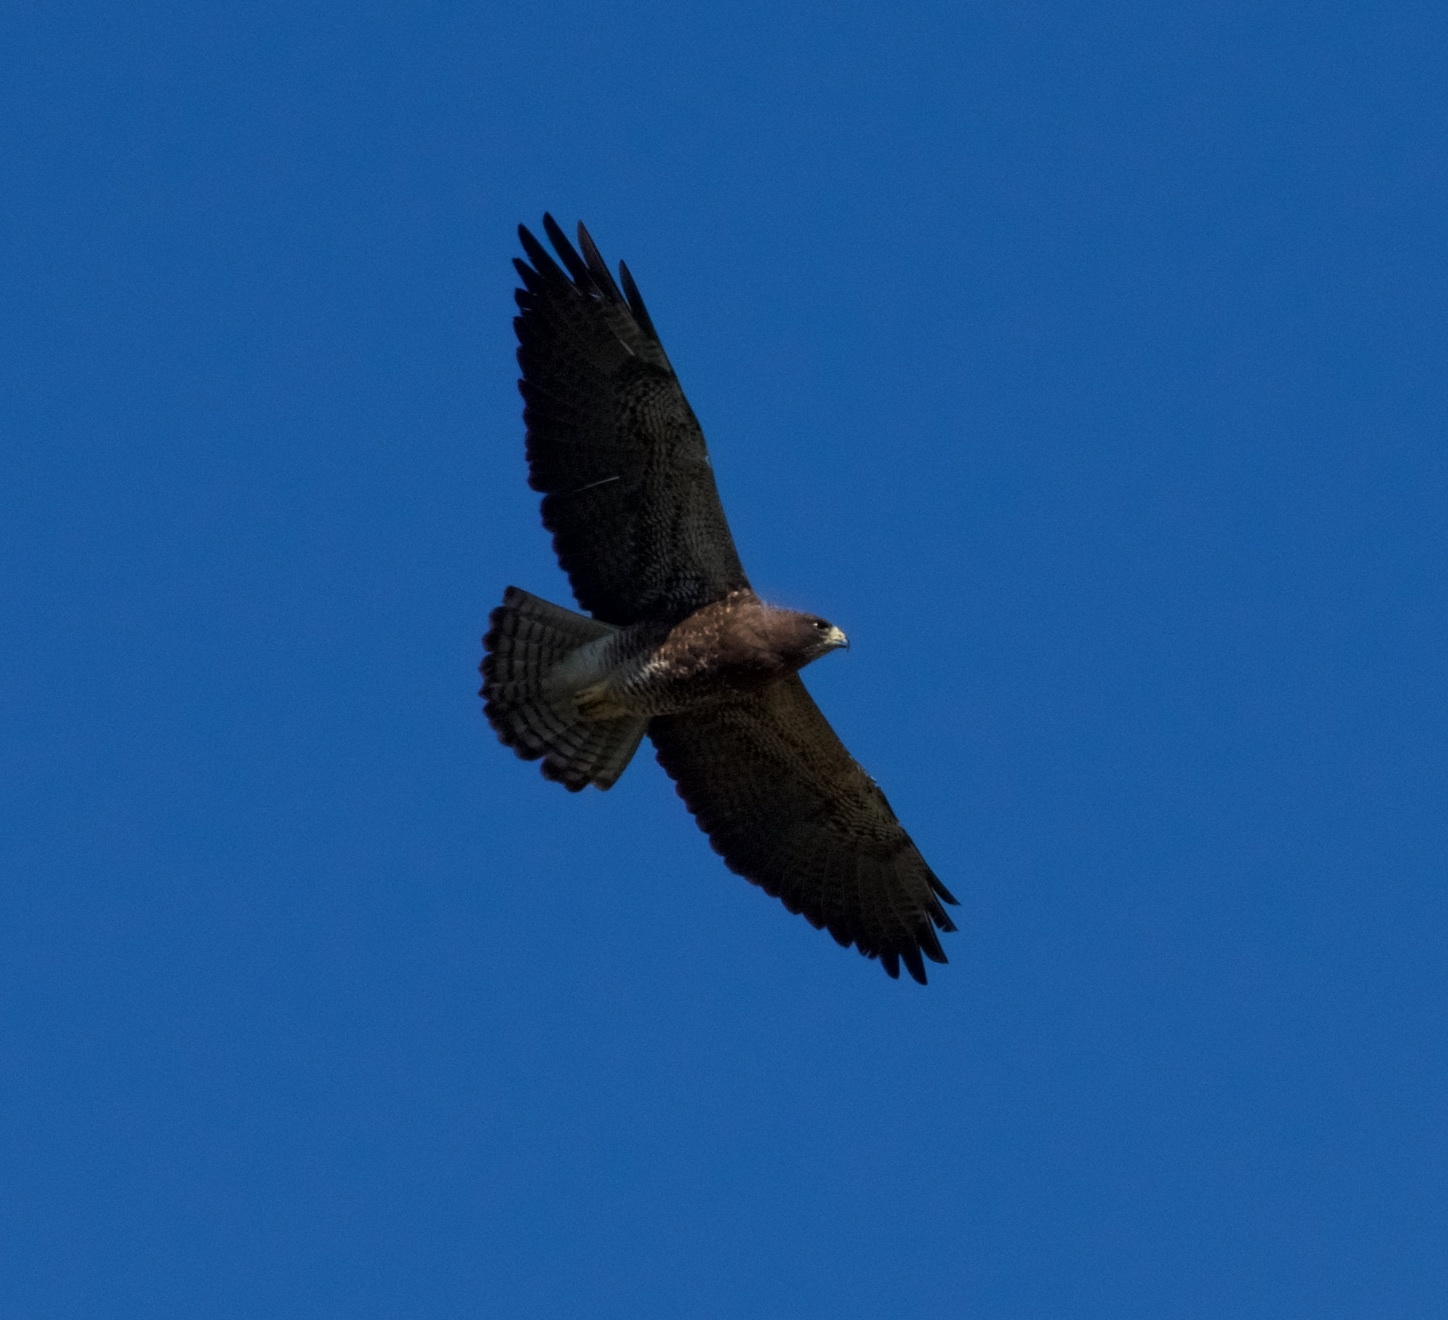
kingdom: Animalia
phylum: Chordata
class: Aves
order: Accipitriformes
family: Accipitridae
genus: Buteo
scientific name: Buteo swainsoni
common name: Swainson's hawk
